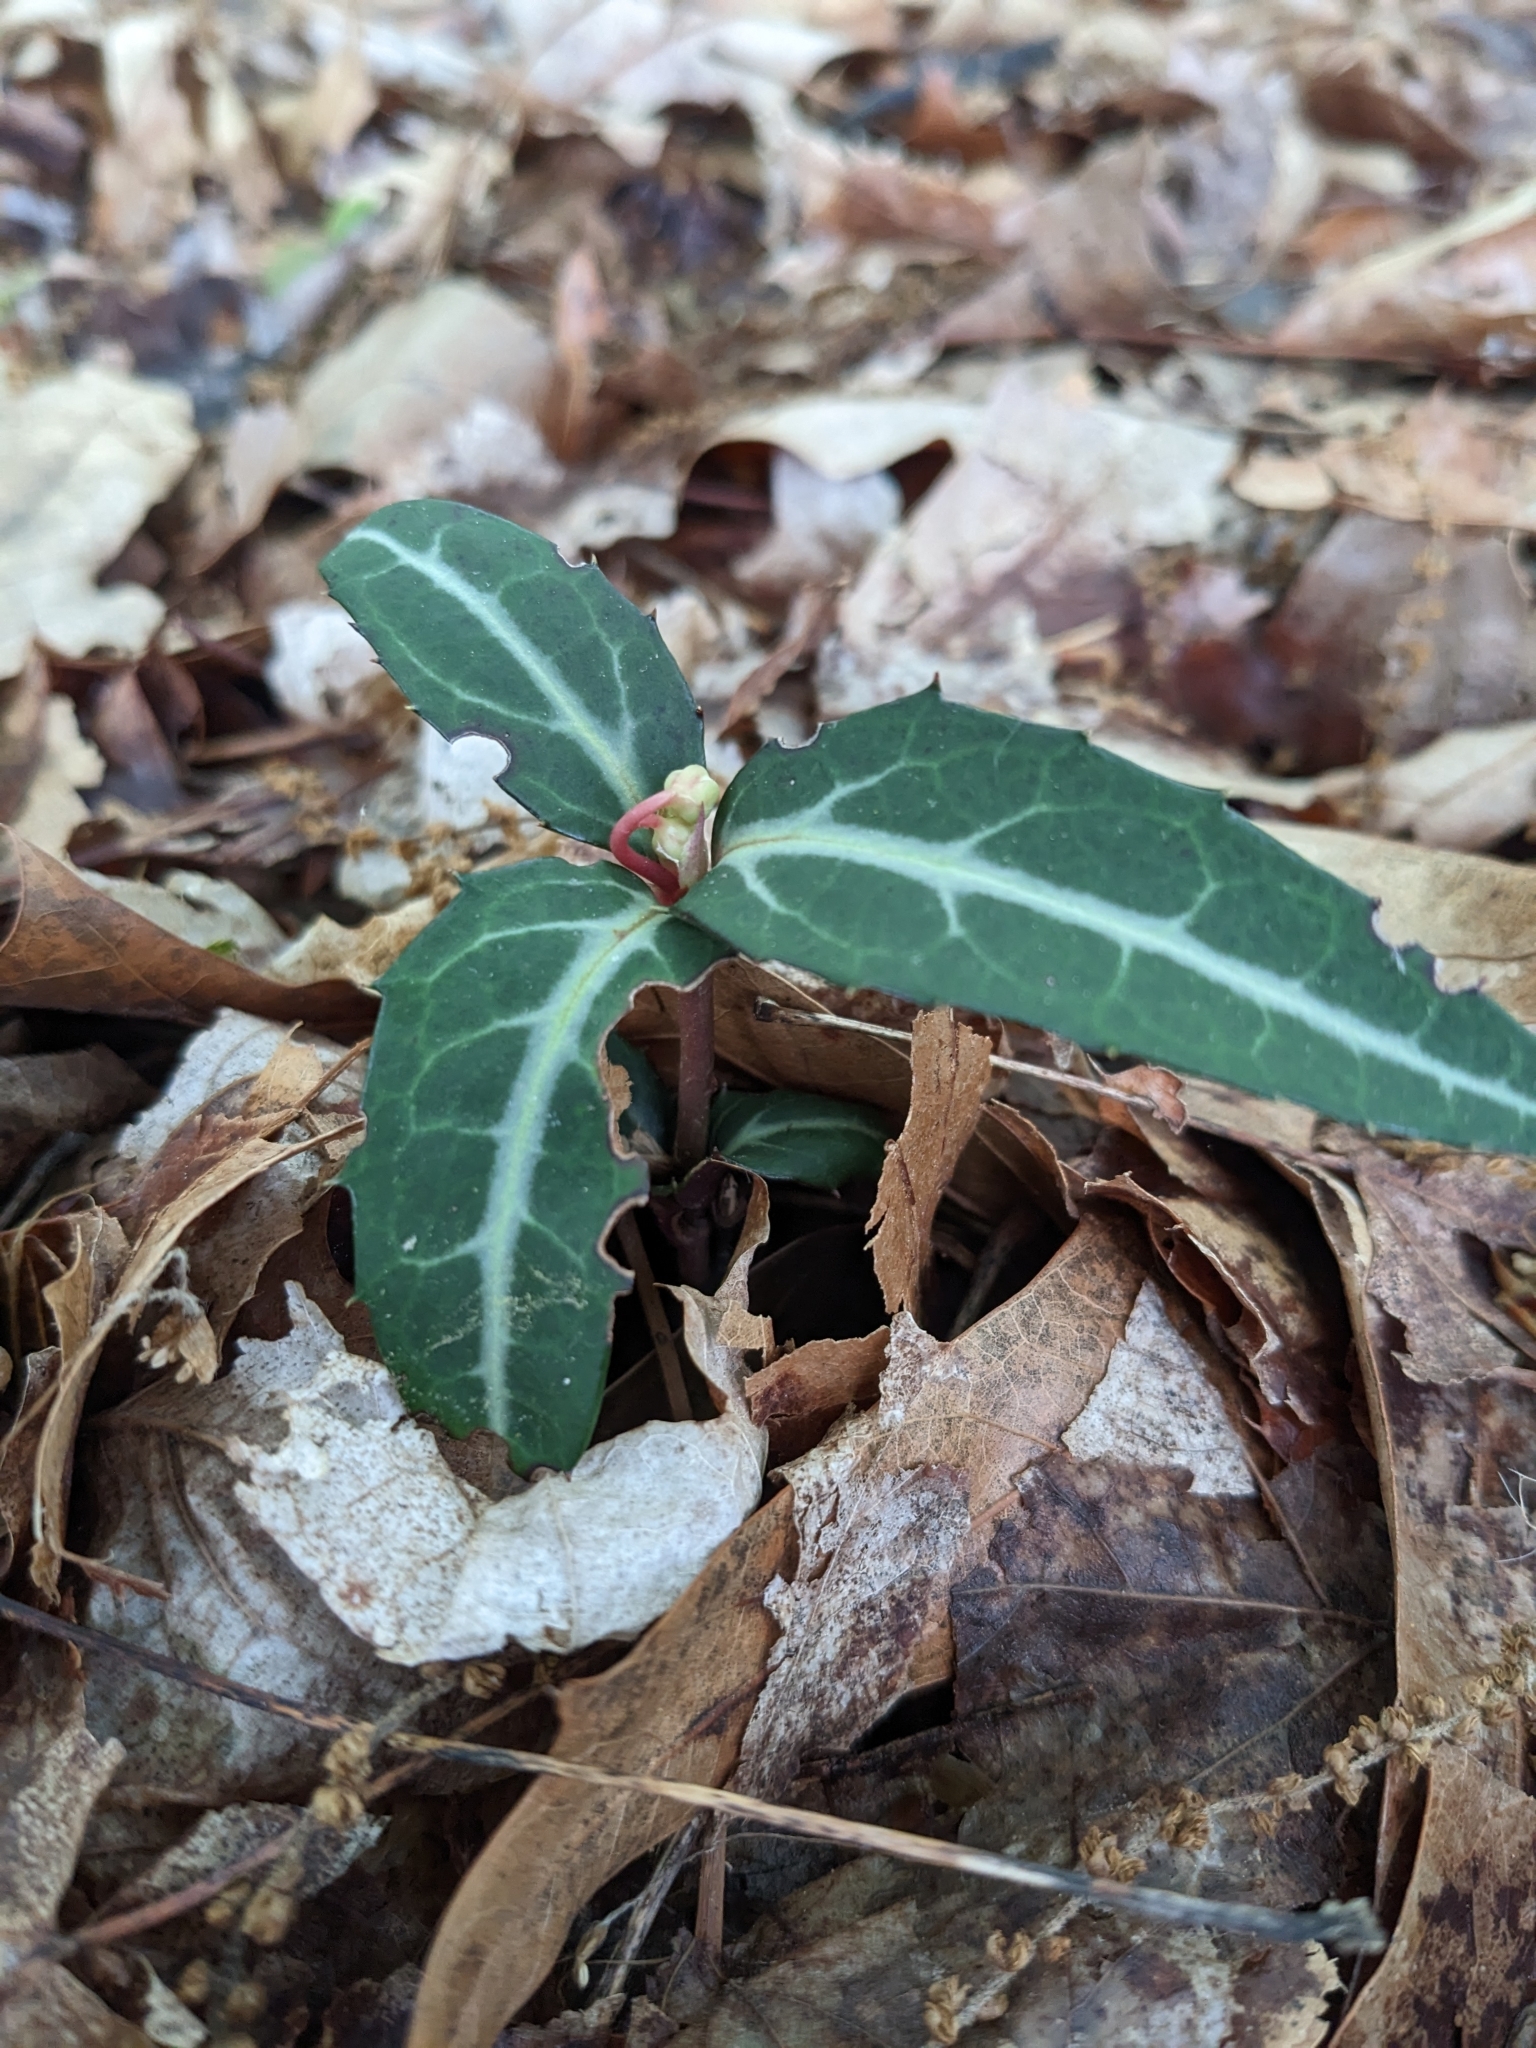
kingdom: Plantae
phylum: Tracheophyta
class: Magnoliopsida
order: Ericales
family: Ericaceae
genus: Chimaphila
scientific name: Chimaphila maculata
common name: Spotted pipsissewa
